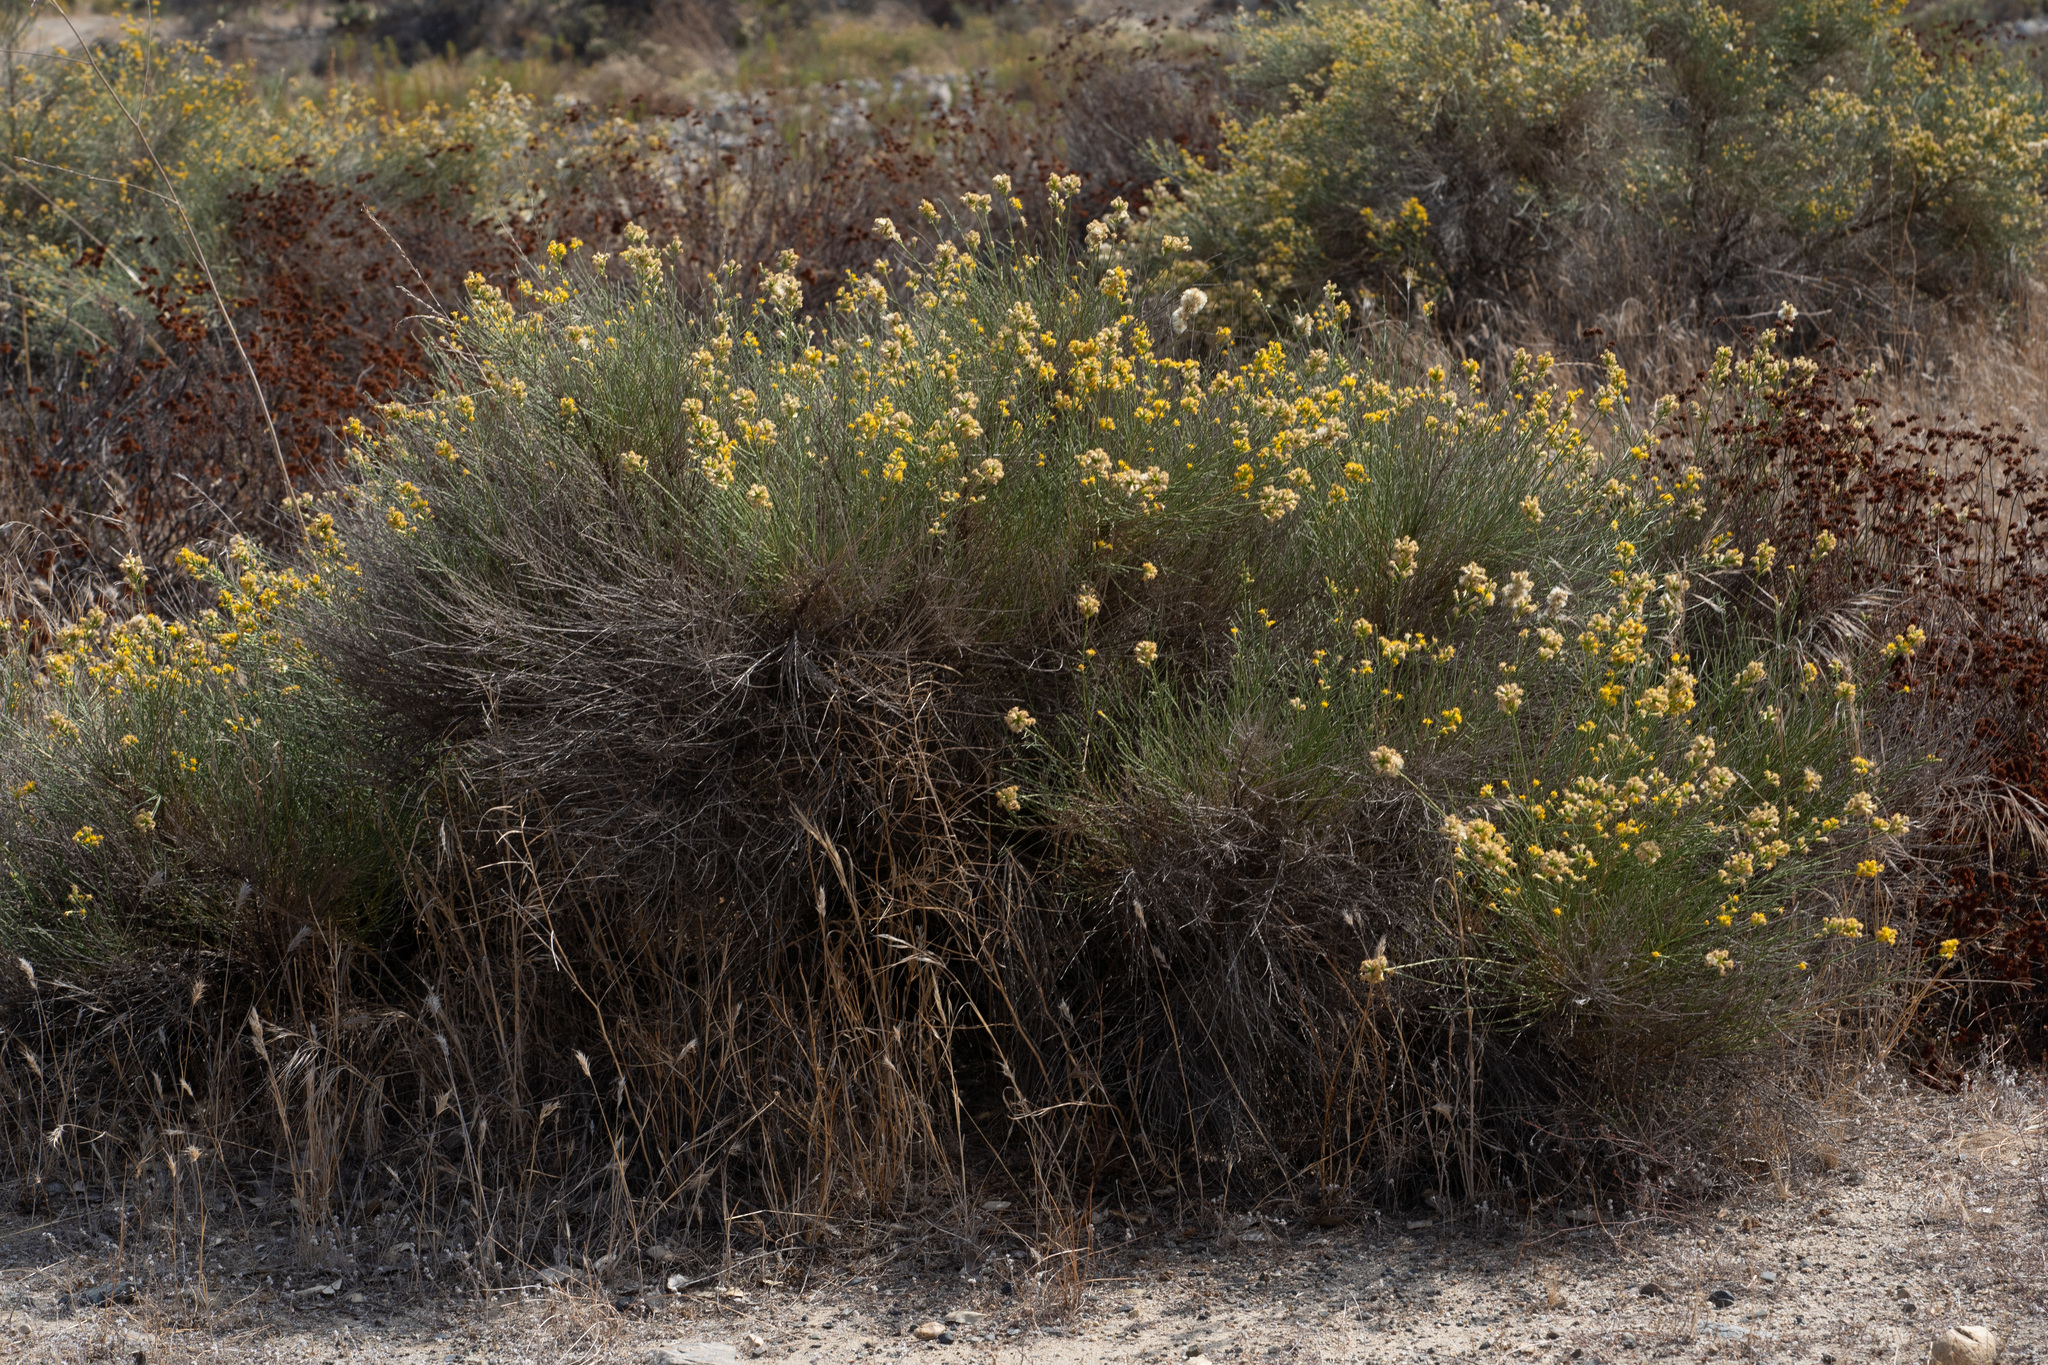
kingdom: Plantae
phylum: Tracheophyta
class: Magnoliopsida
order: Asterales
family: Asteraceae
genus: Lepidospartum
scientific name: Lepidospartum squamatum
